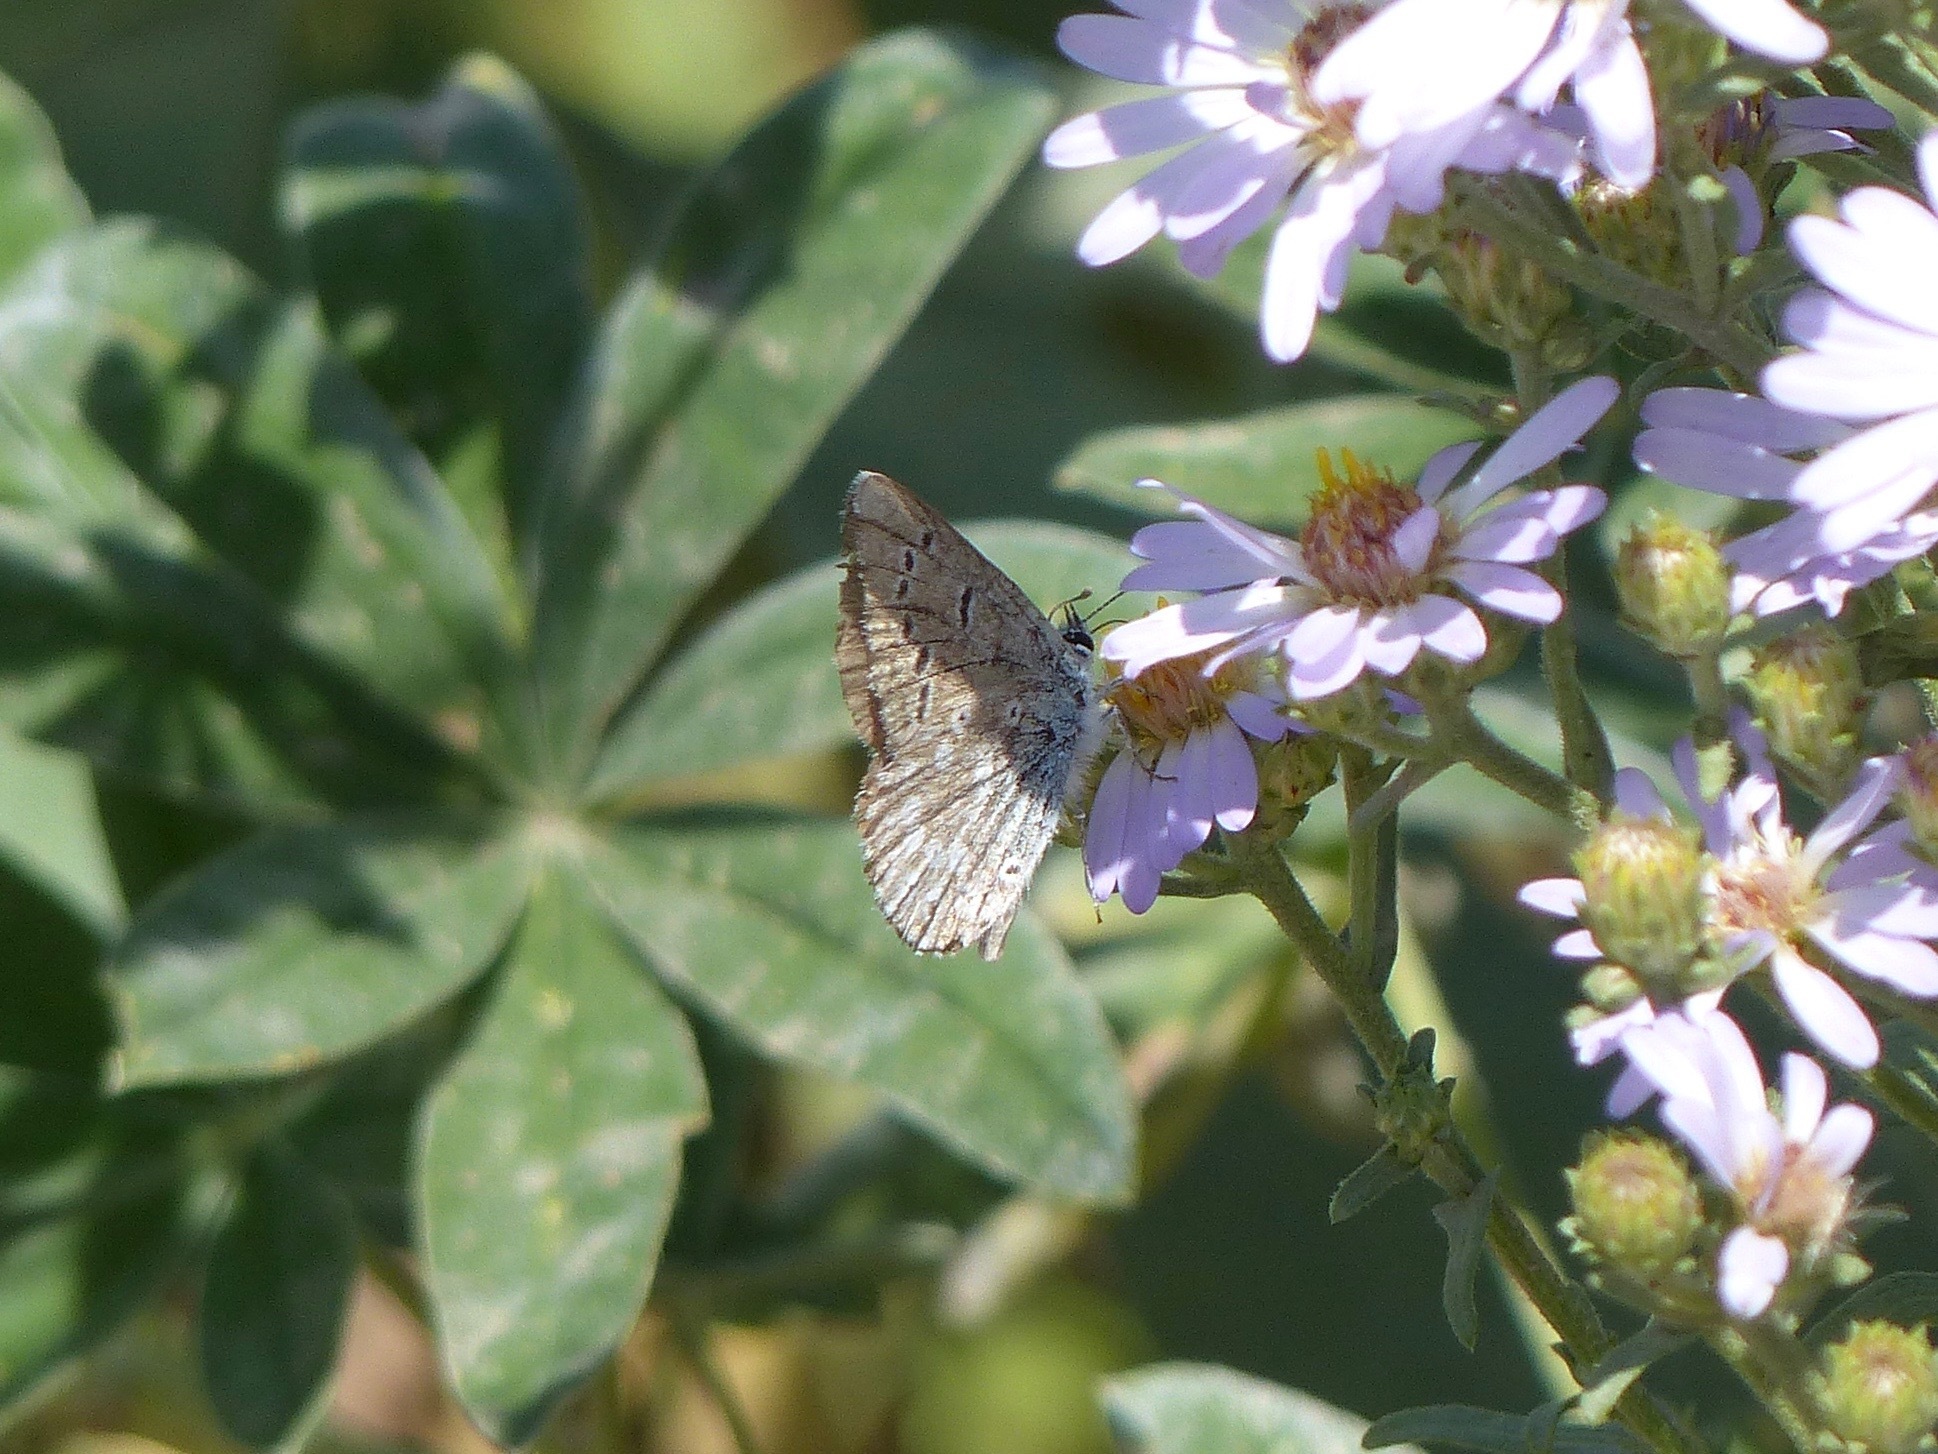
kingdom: Animalia
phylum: Arthropoda
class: Insecta
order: Lepidoptera
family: Lycaenidae
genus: Icaricia
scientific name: Icaricia icarioides
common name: Boisduval's blue
